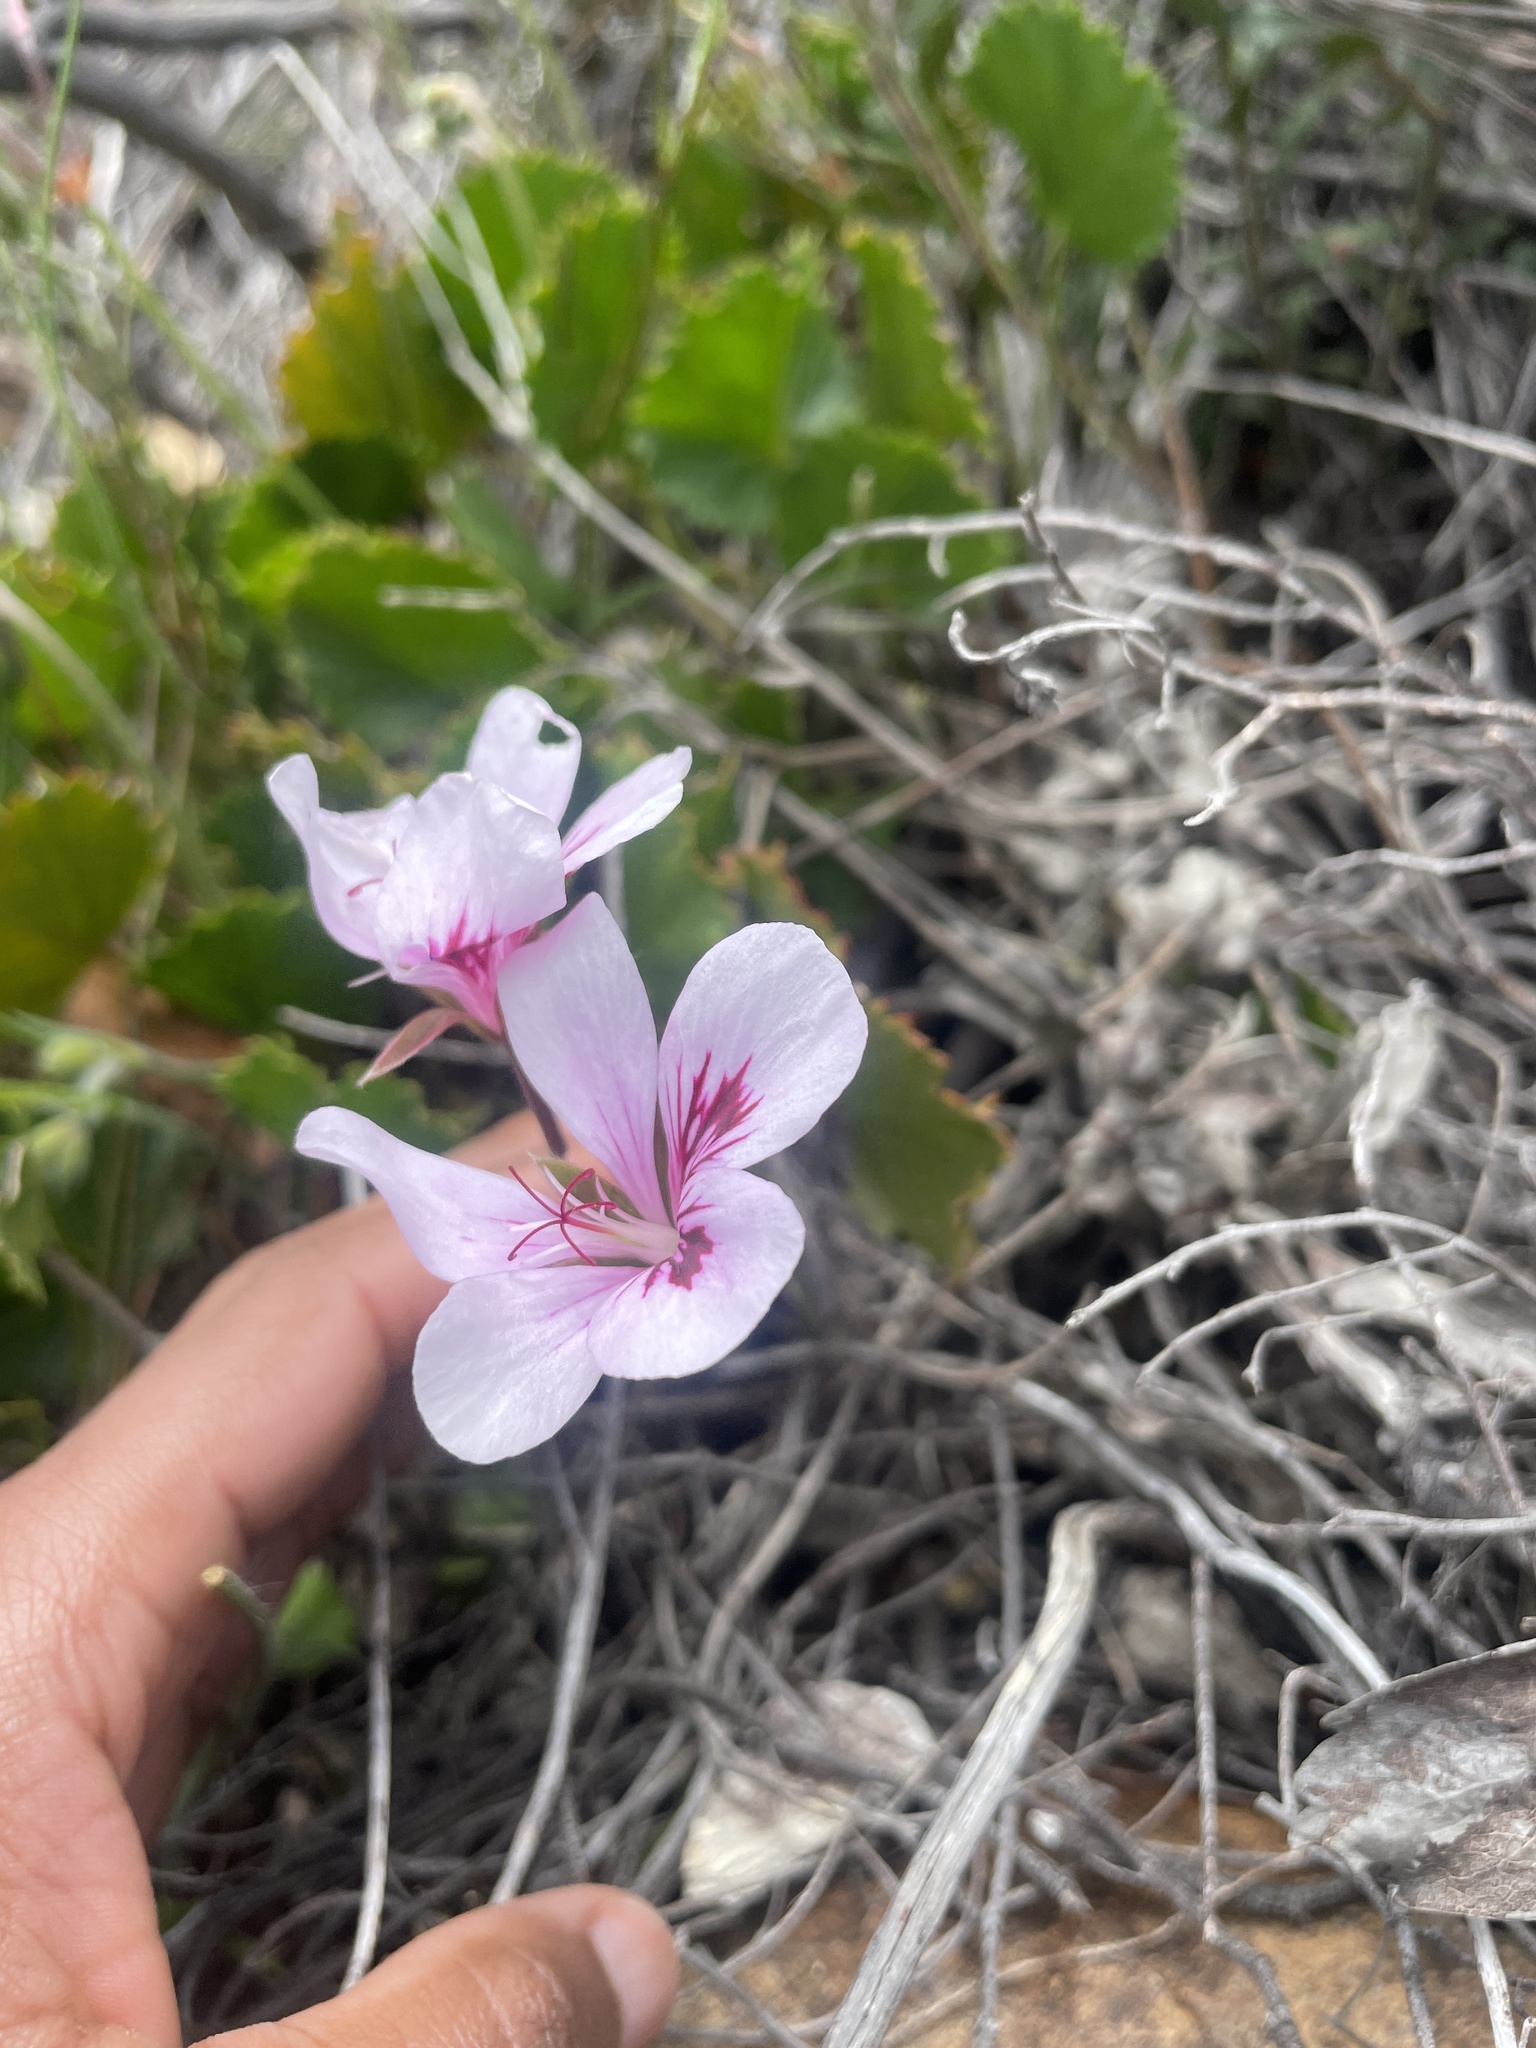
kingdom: Plantae
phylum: Tracheophyta
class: Magnoliopsida
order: Geraniales
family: Geraniaceae
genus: Pelargonium
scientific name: Pelargonium elegans
